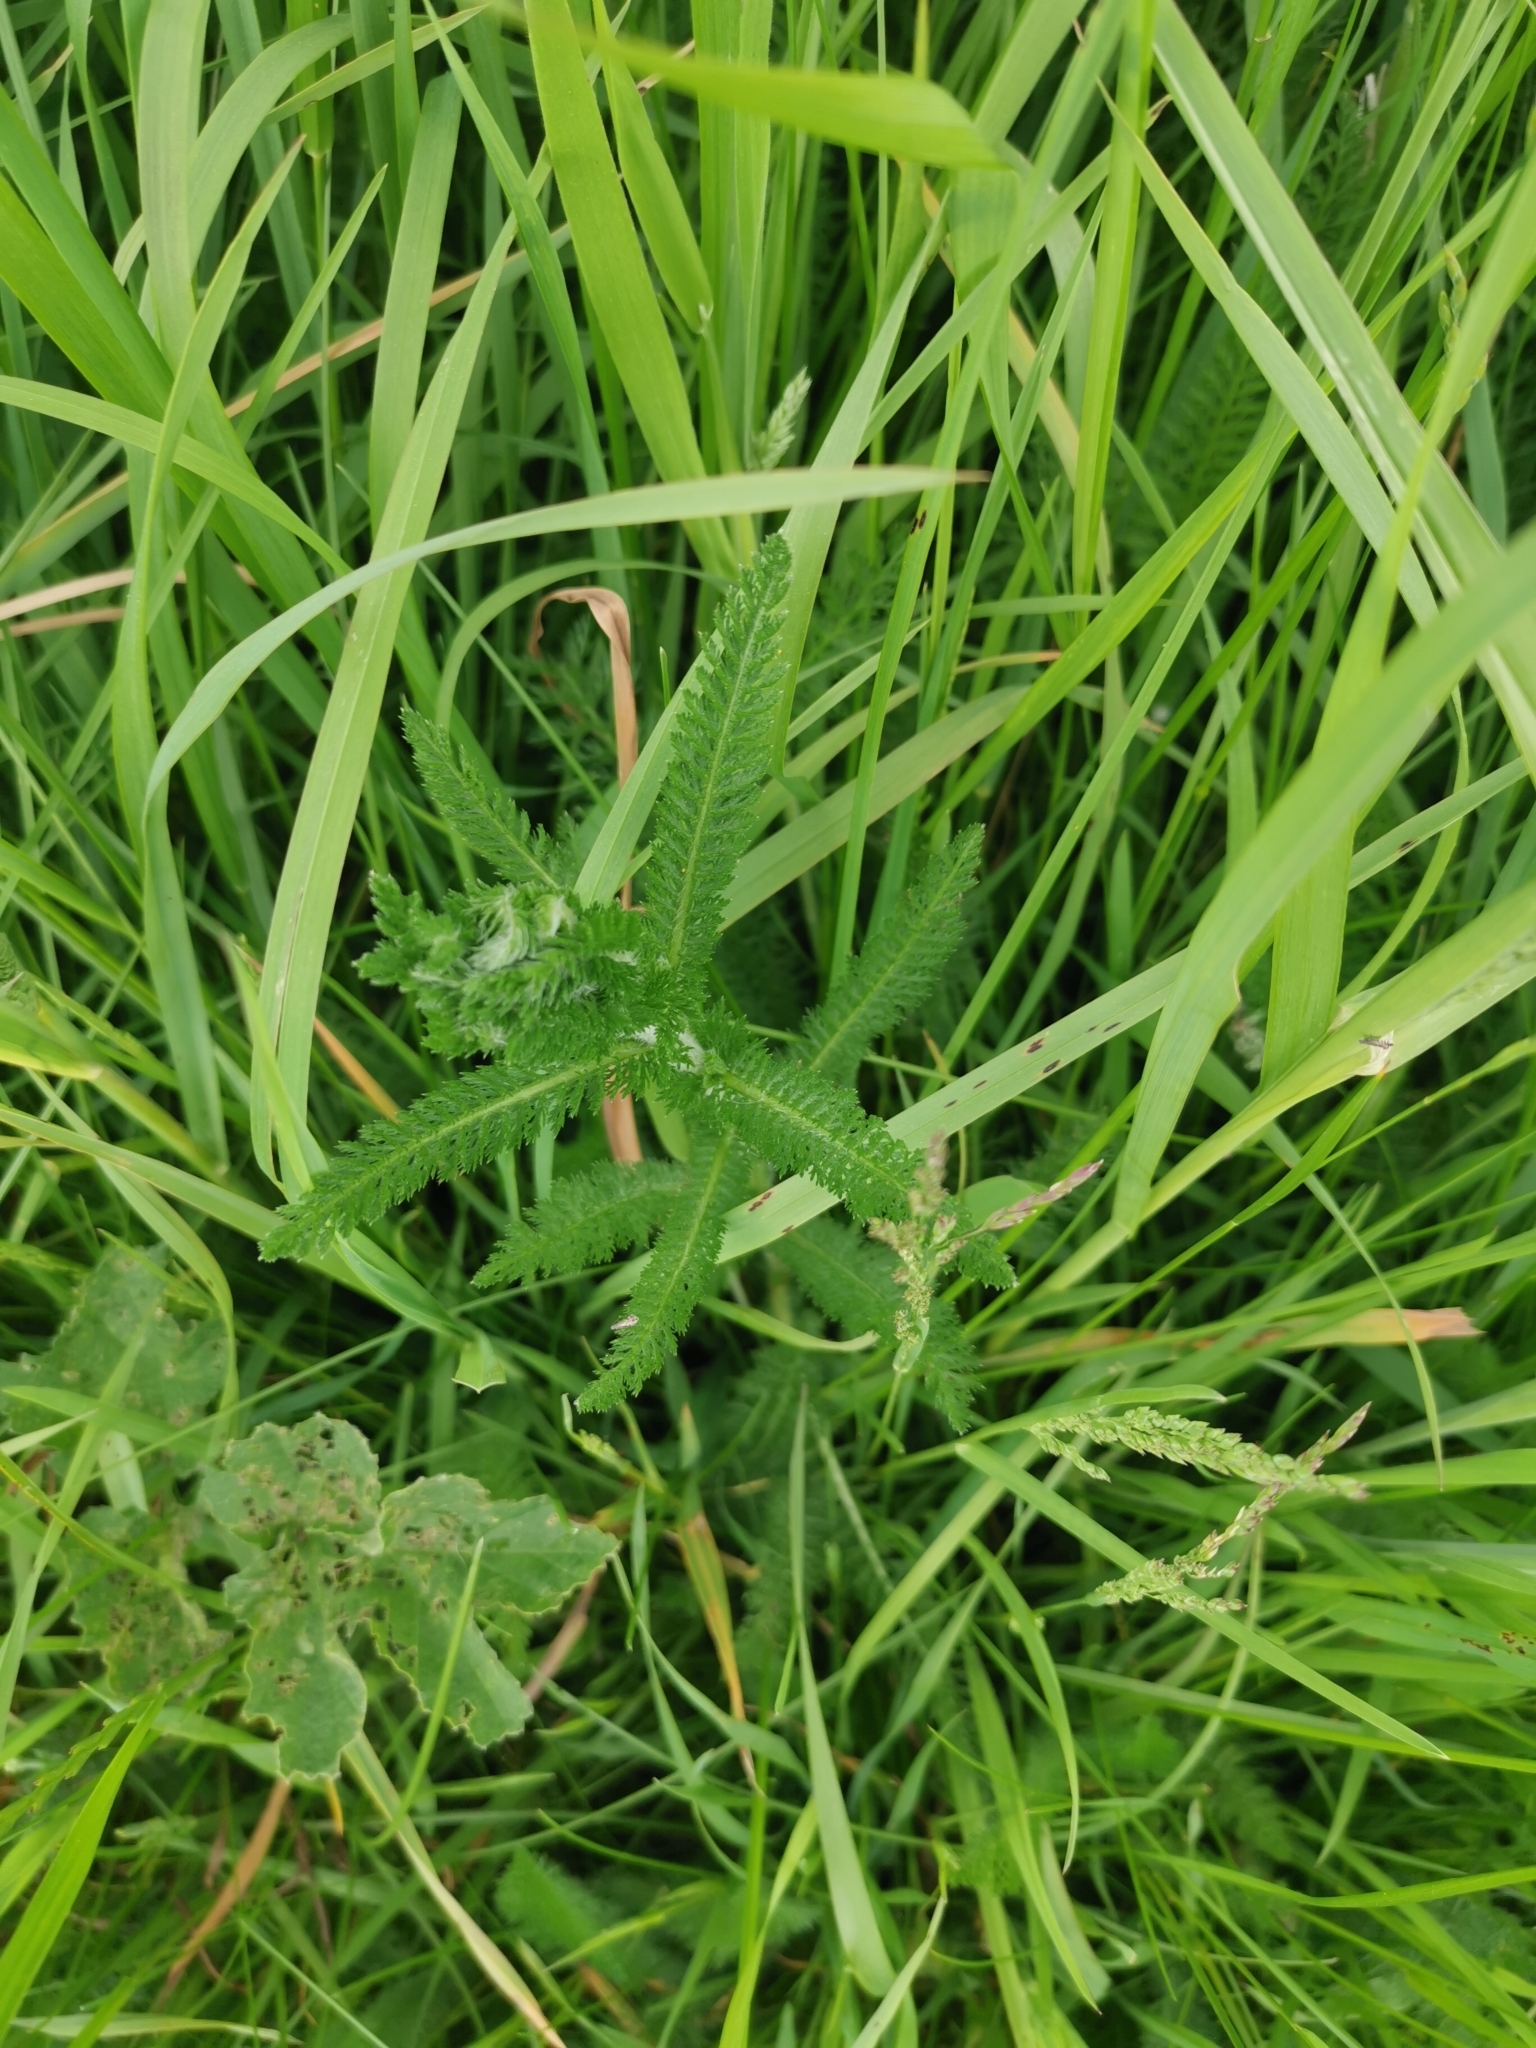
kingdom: Plantae
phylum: Tracheophyta
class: Magnoliopsida
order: Asterales
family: Asteraceae
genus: Achillea
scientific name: Achillea millefolium
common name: Yarrow
